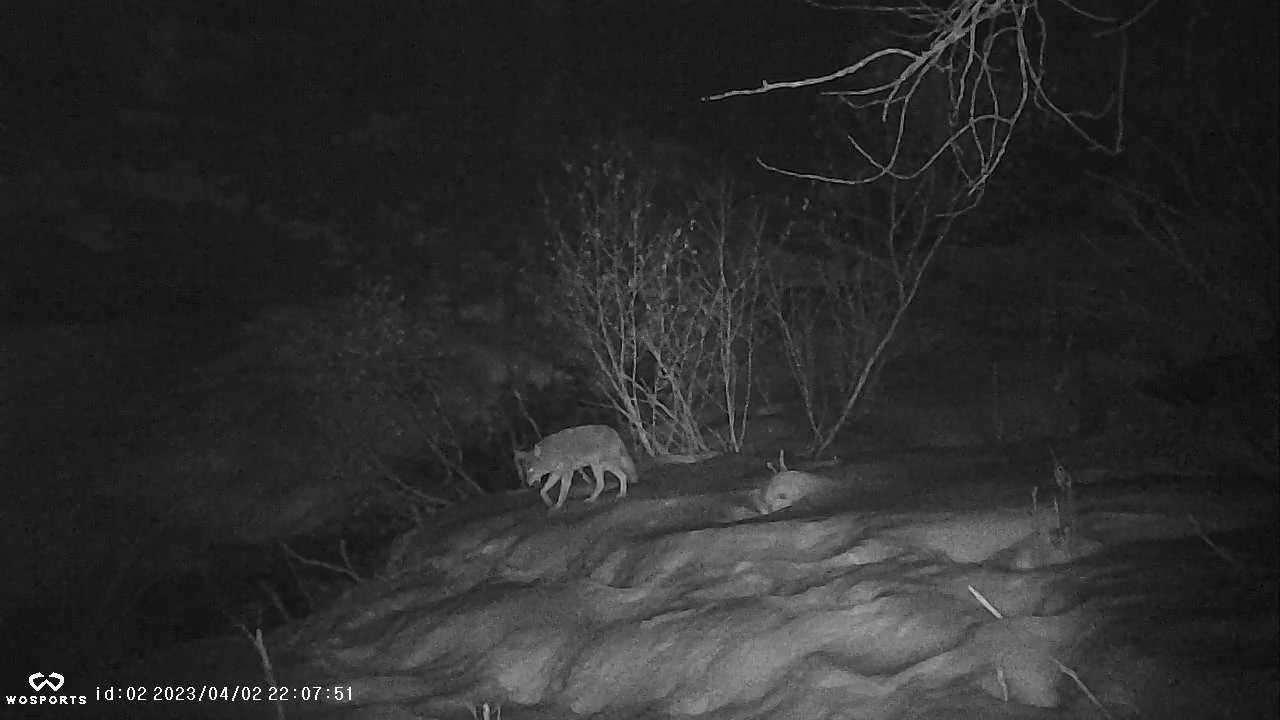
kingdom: Animalia
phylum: Chordata
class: Mammalia
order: Carnivora
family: Canidae
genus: Canis
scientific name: Canis latrans
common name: Coyote
